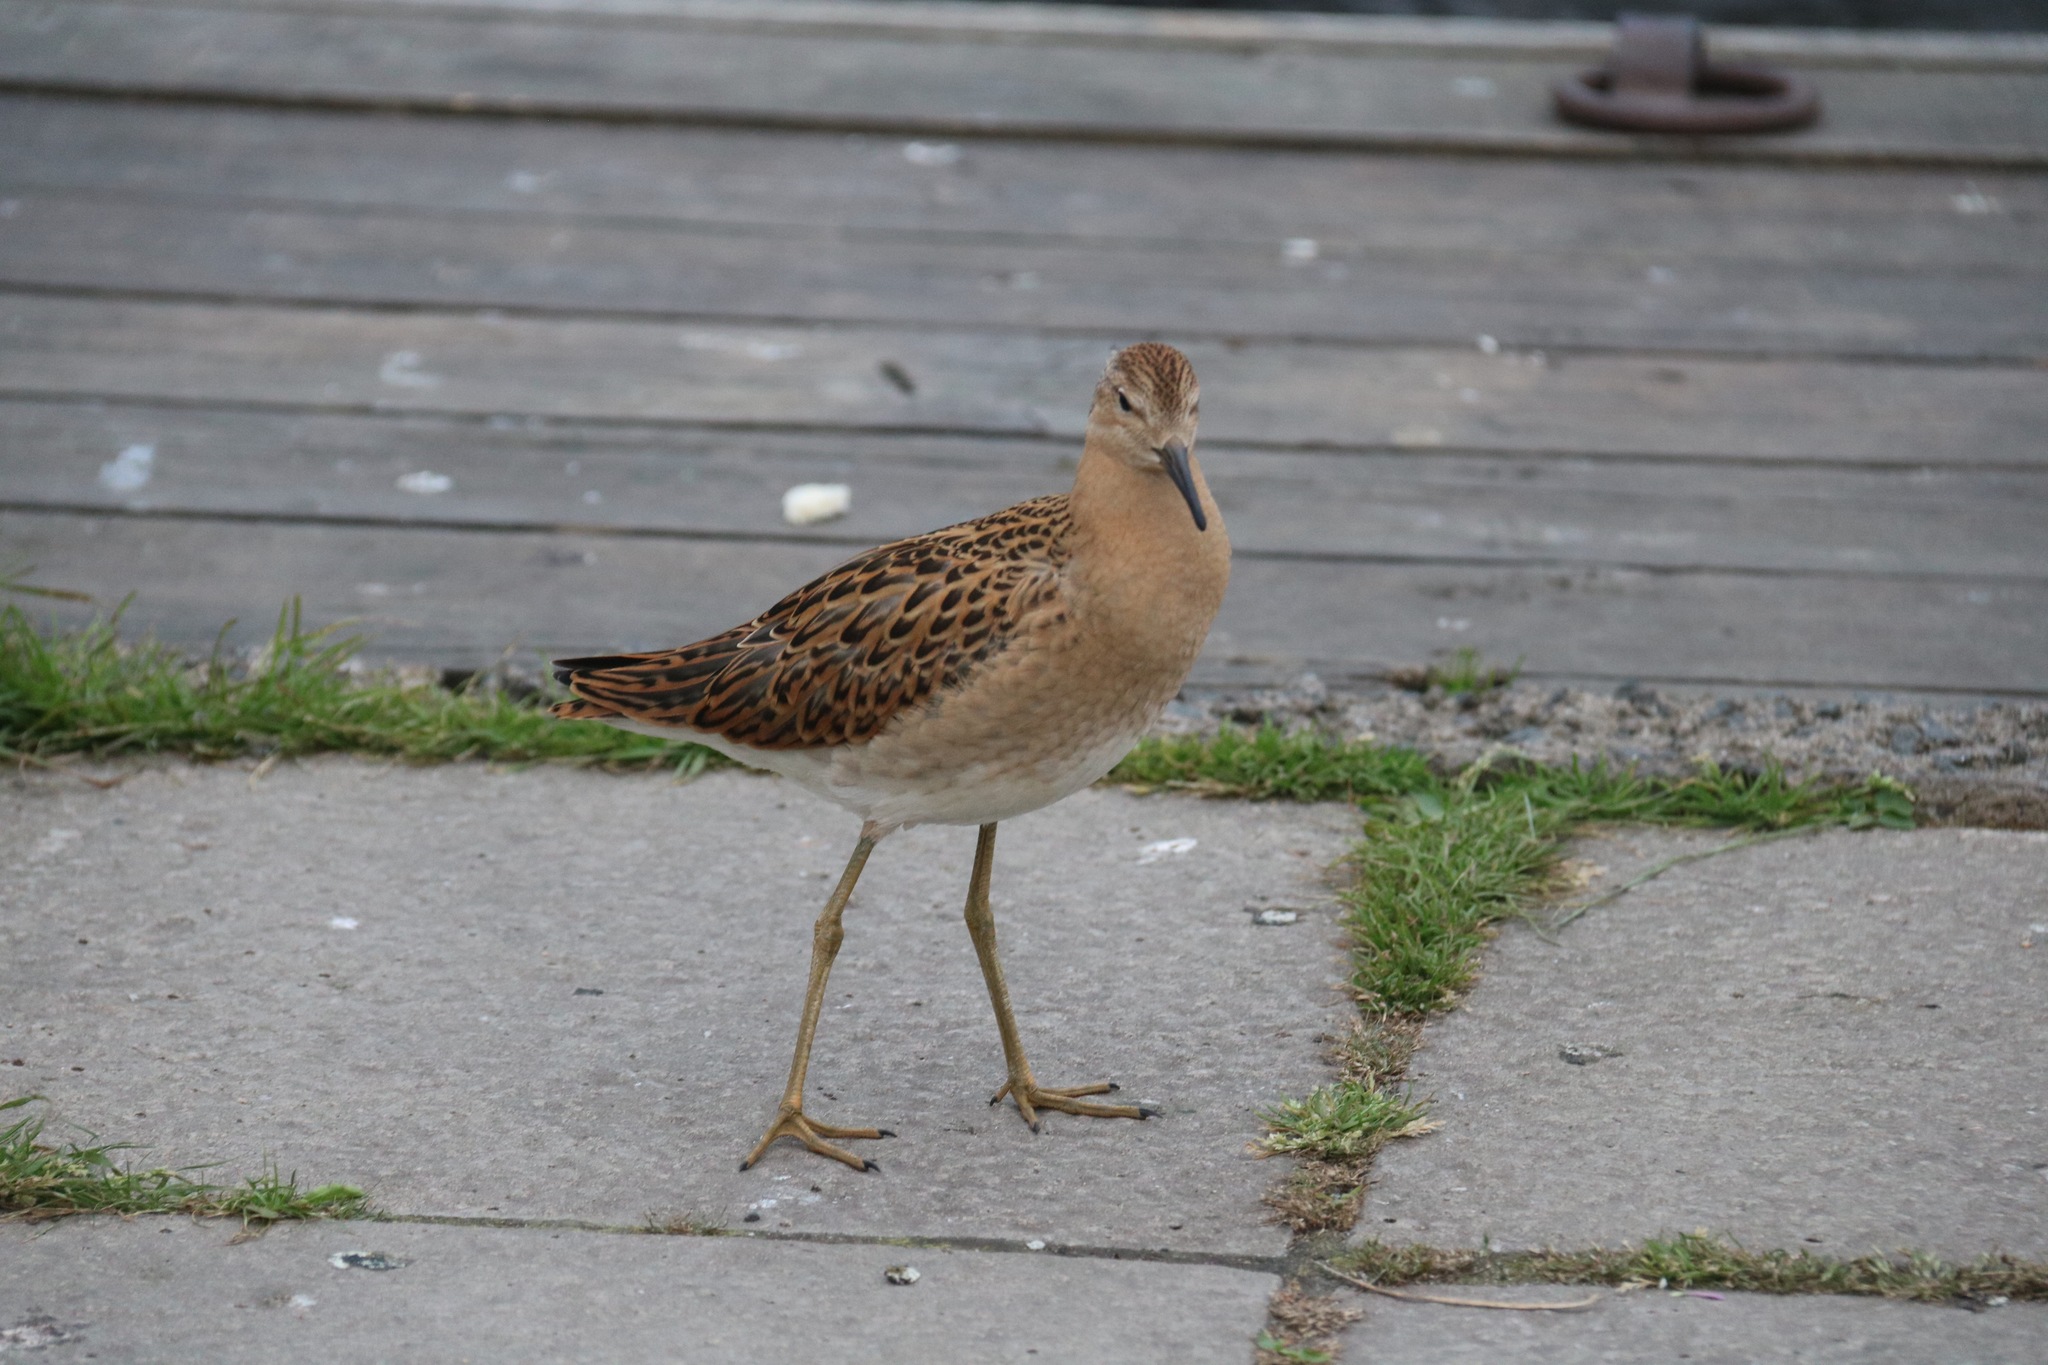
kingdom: Animalia
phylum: Chordata
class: Aves
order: Charadriiformes
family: Scolopacidae
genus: Calidris
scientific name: Calidris pugnax
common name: Ruff
